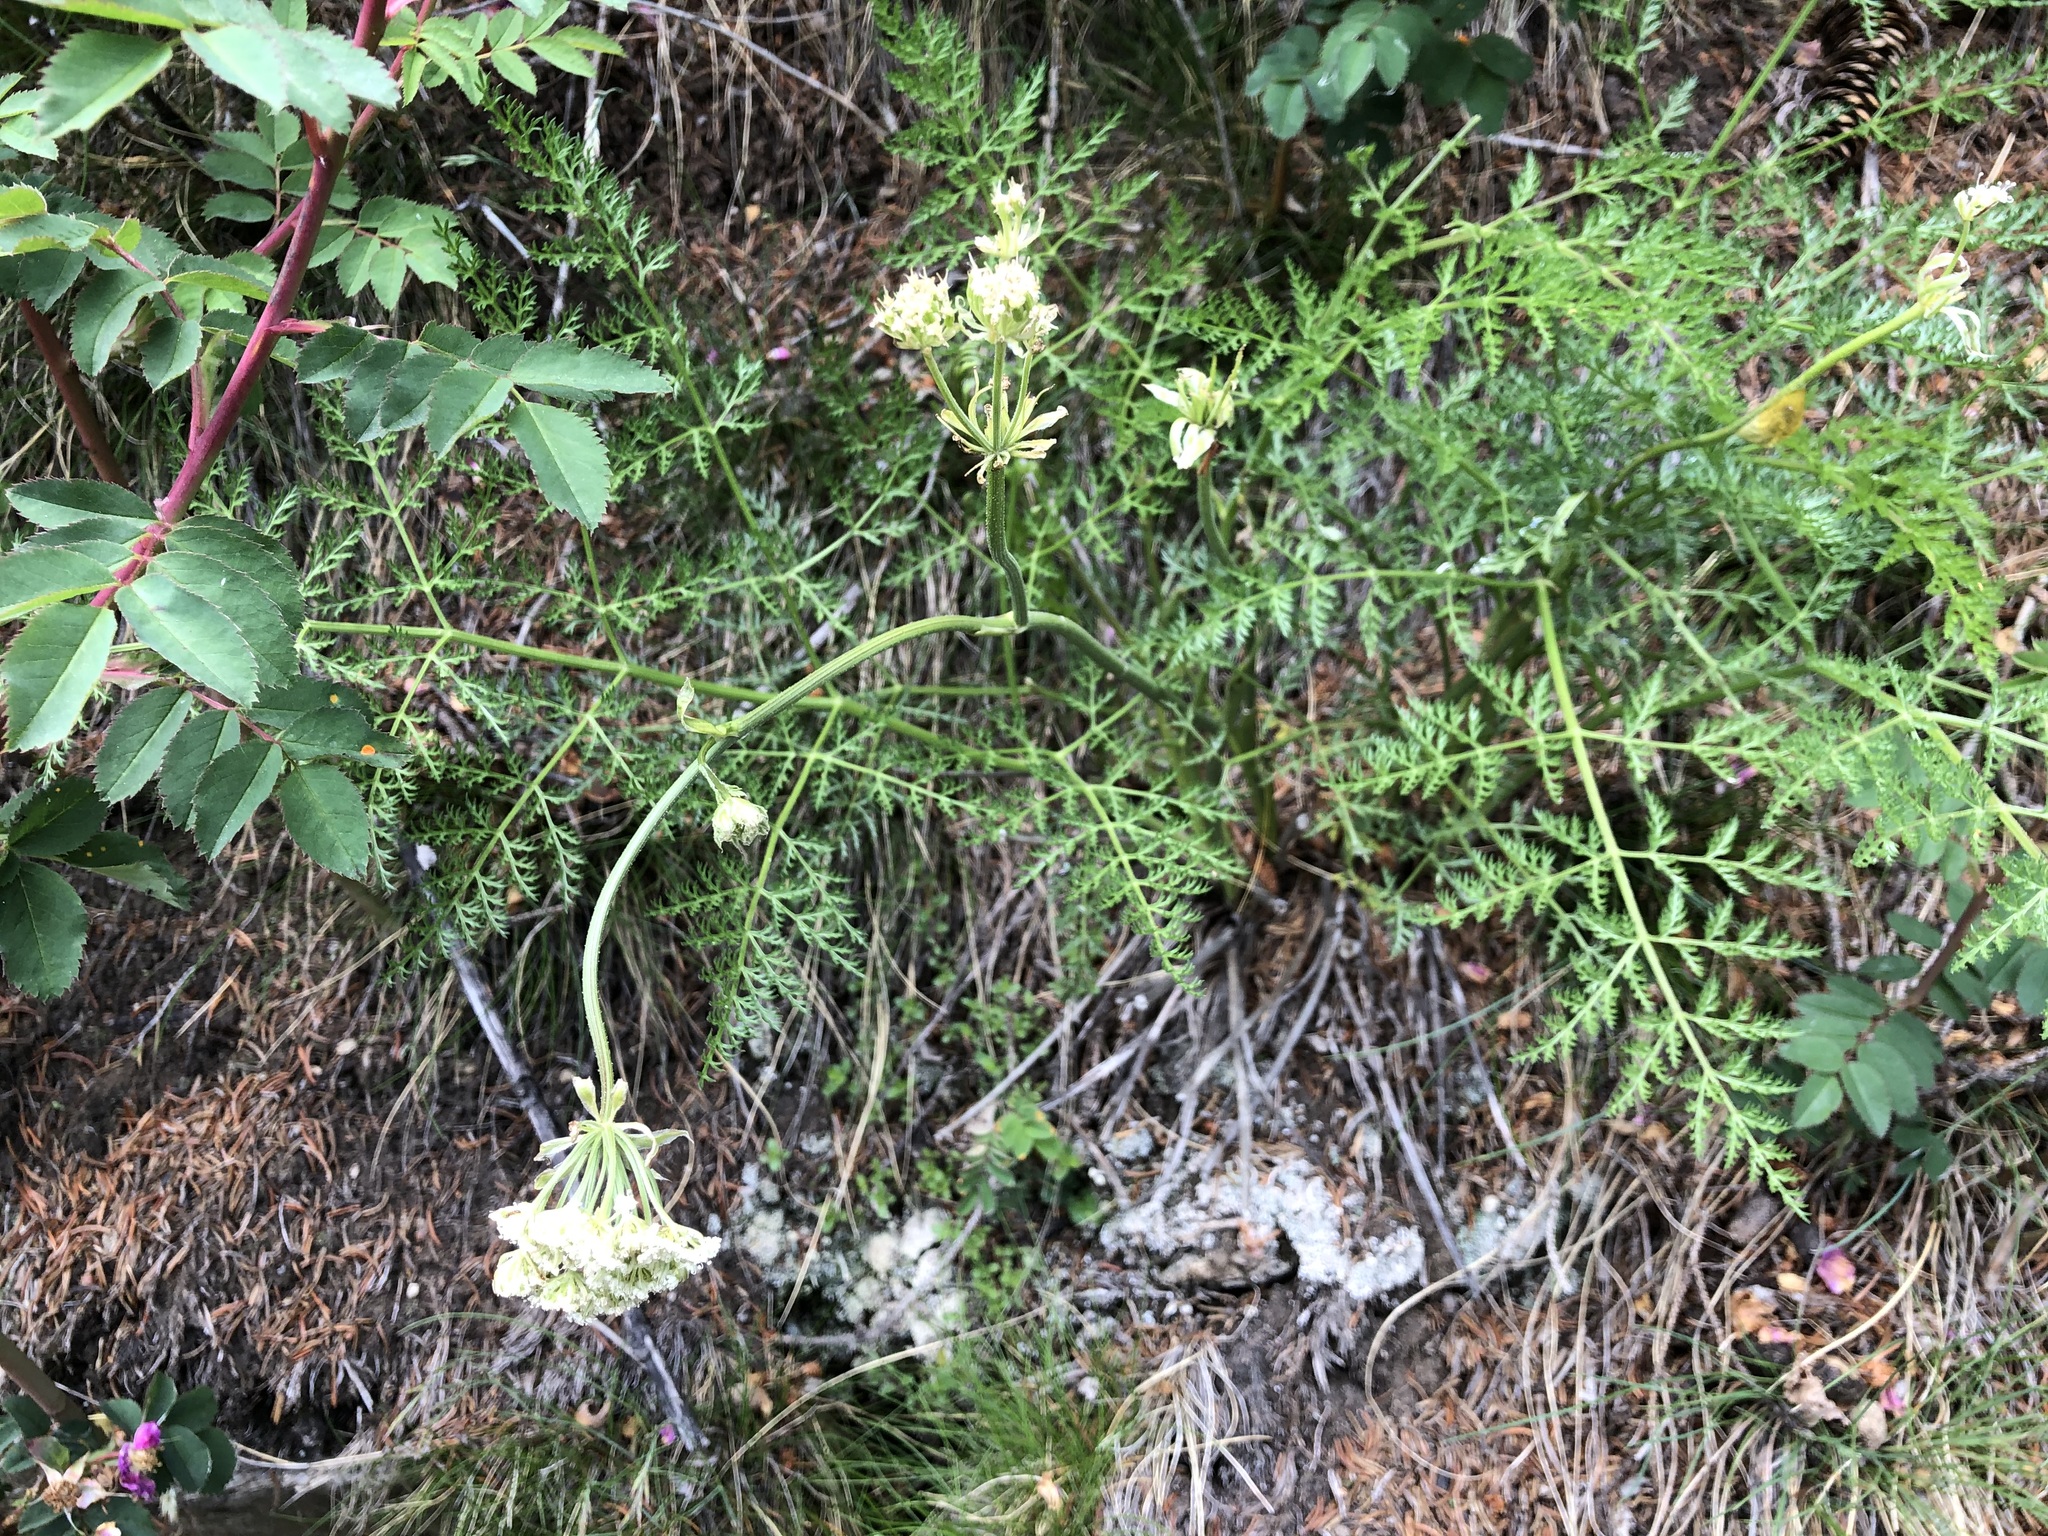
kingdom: Plantae
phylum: Tracheophyta
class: Magnoliopsida
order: Apiales
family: Apiaceae
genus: Laserpitium
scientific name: Laserpitium halleri
